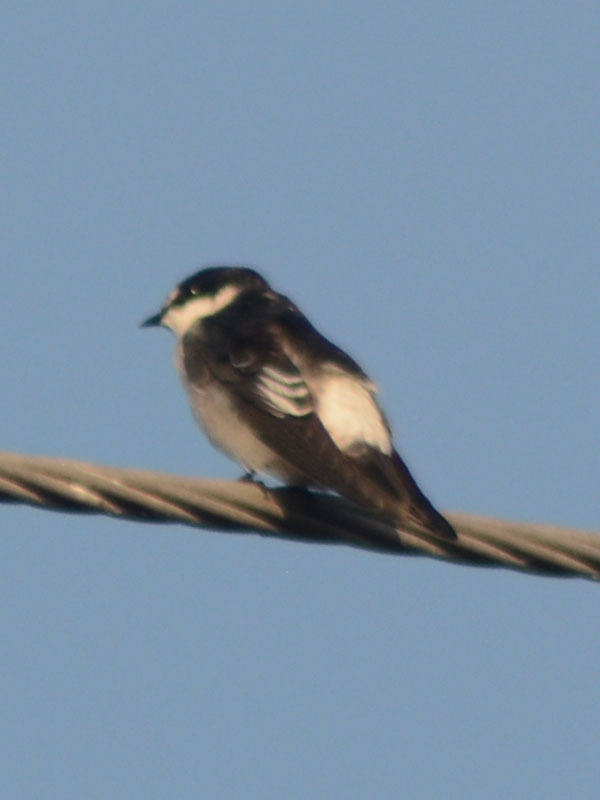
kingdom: Animalia
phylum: Chordata
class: Aves
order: Passeriformes
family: Hirundinidae
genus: Tachycineta
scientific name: Tachycineta albilinea
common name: Mangrove swallow
